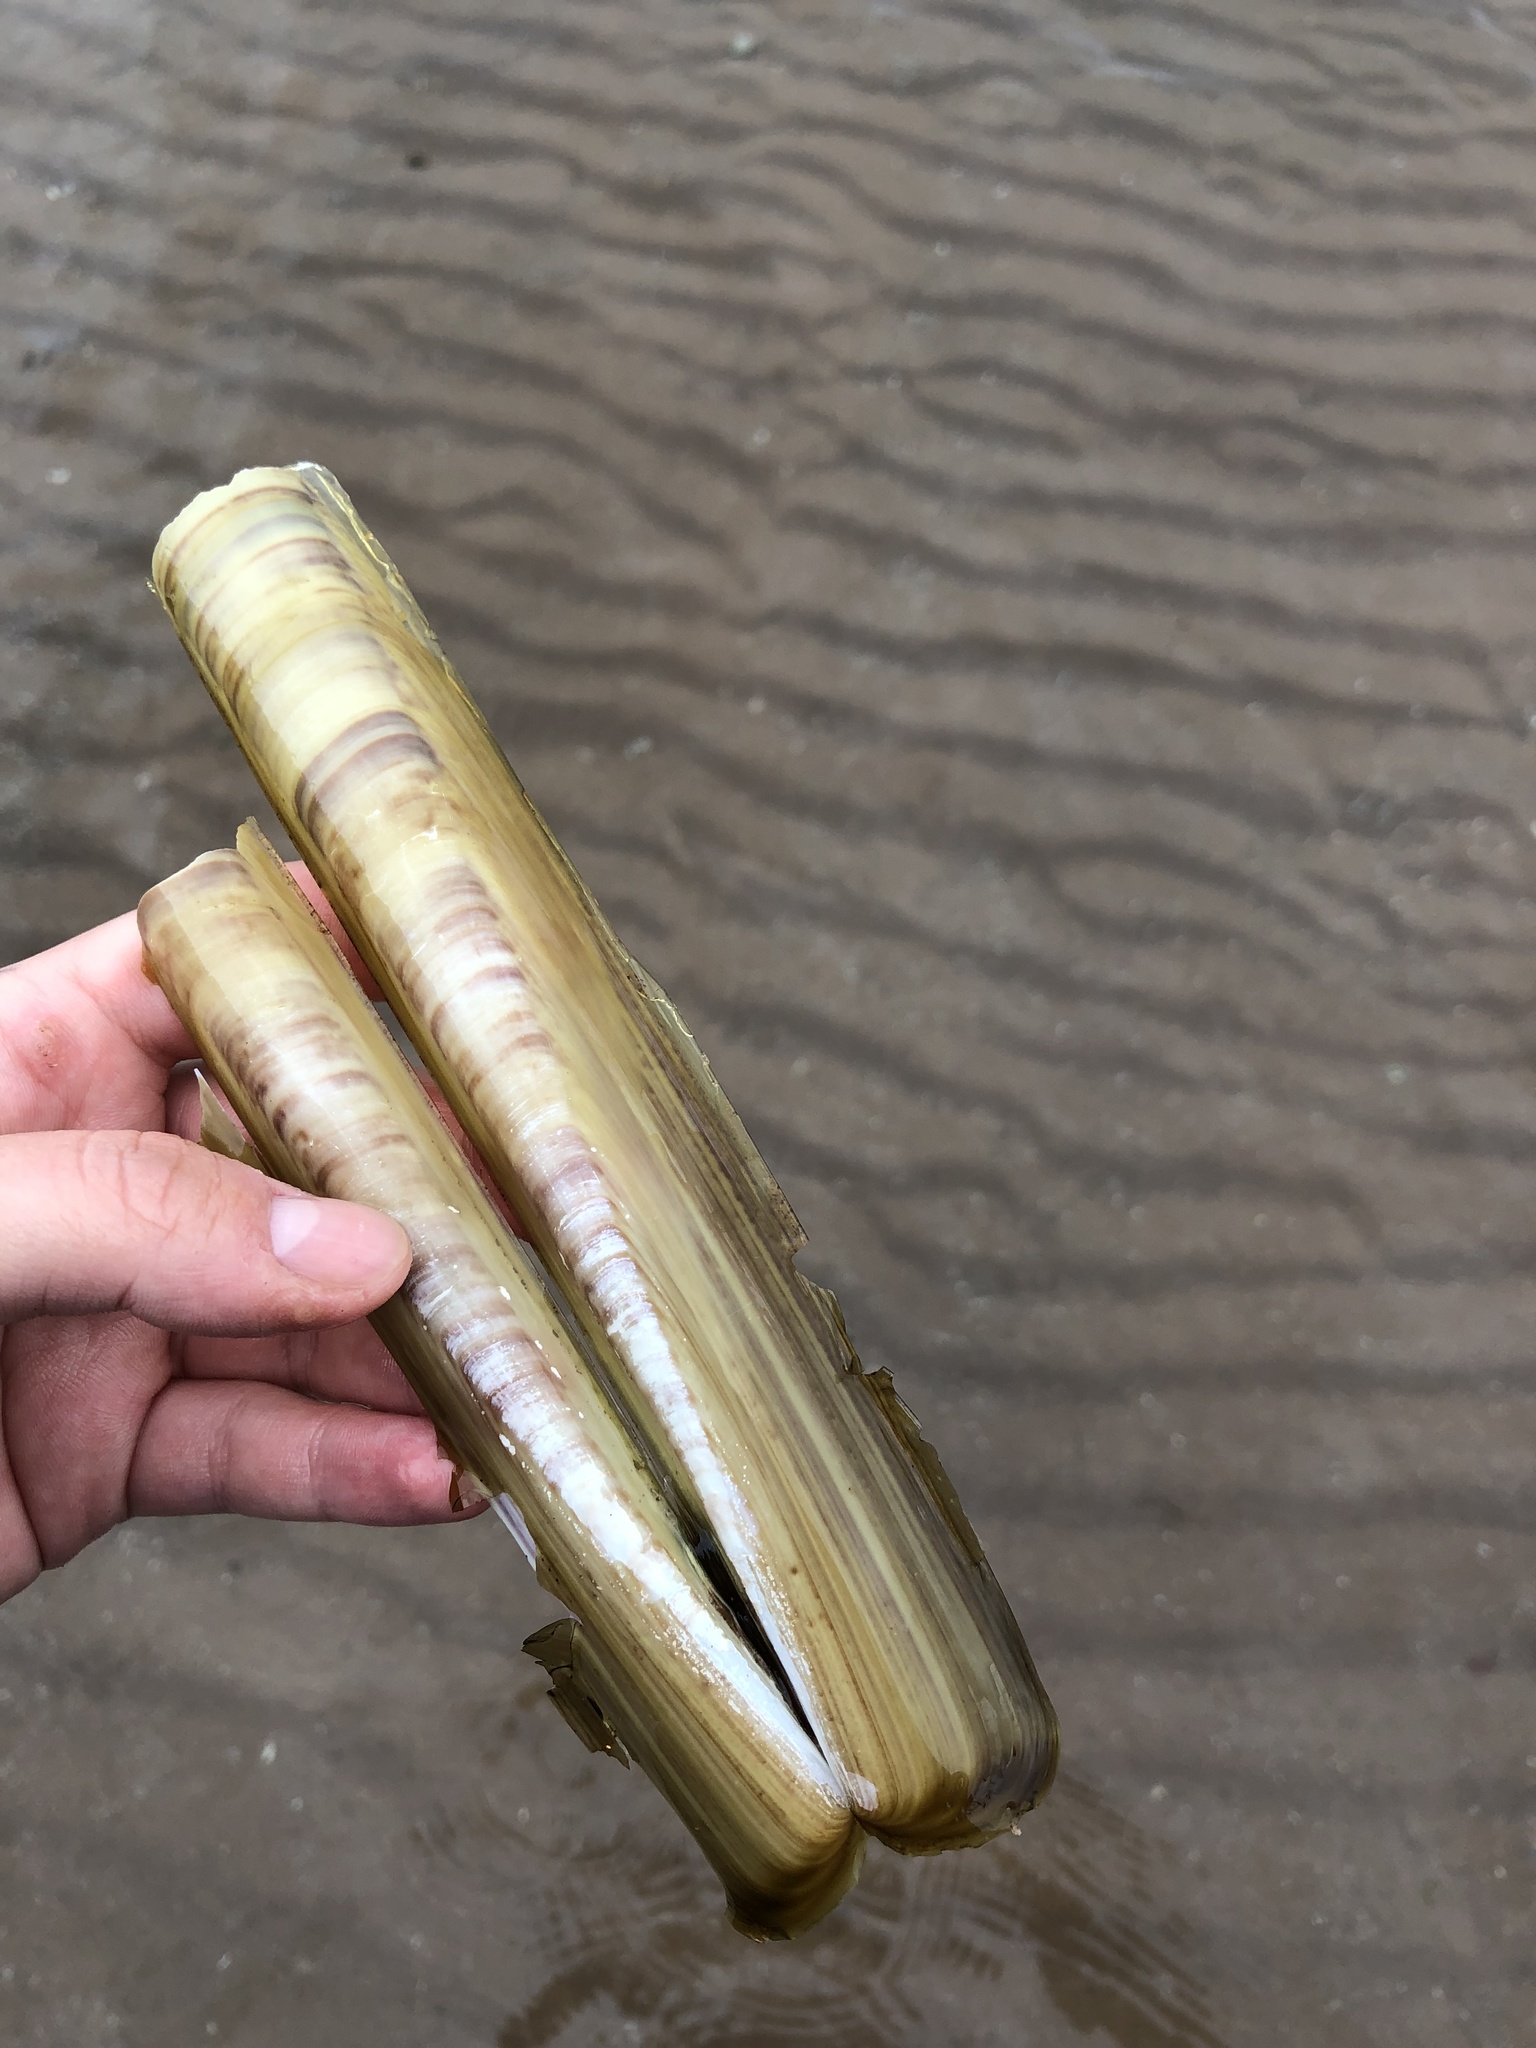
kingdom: Animalia
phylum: Mollusca
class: Bivalvia
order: Adapedonta
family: Pharidae
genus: Ensis
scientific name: Ensis siliqua
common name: Pod razor shell
